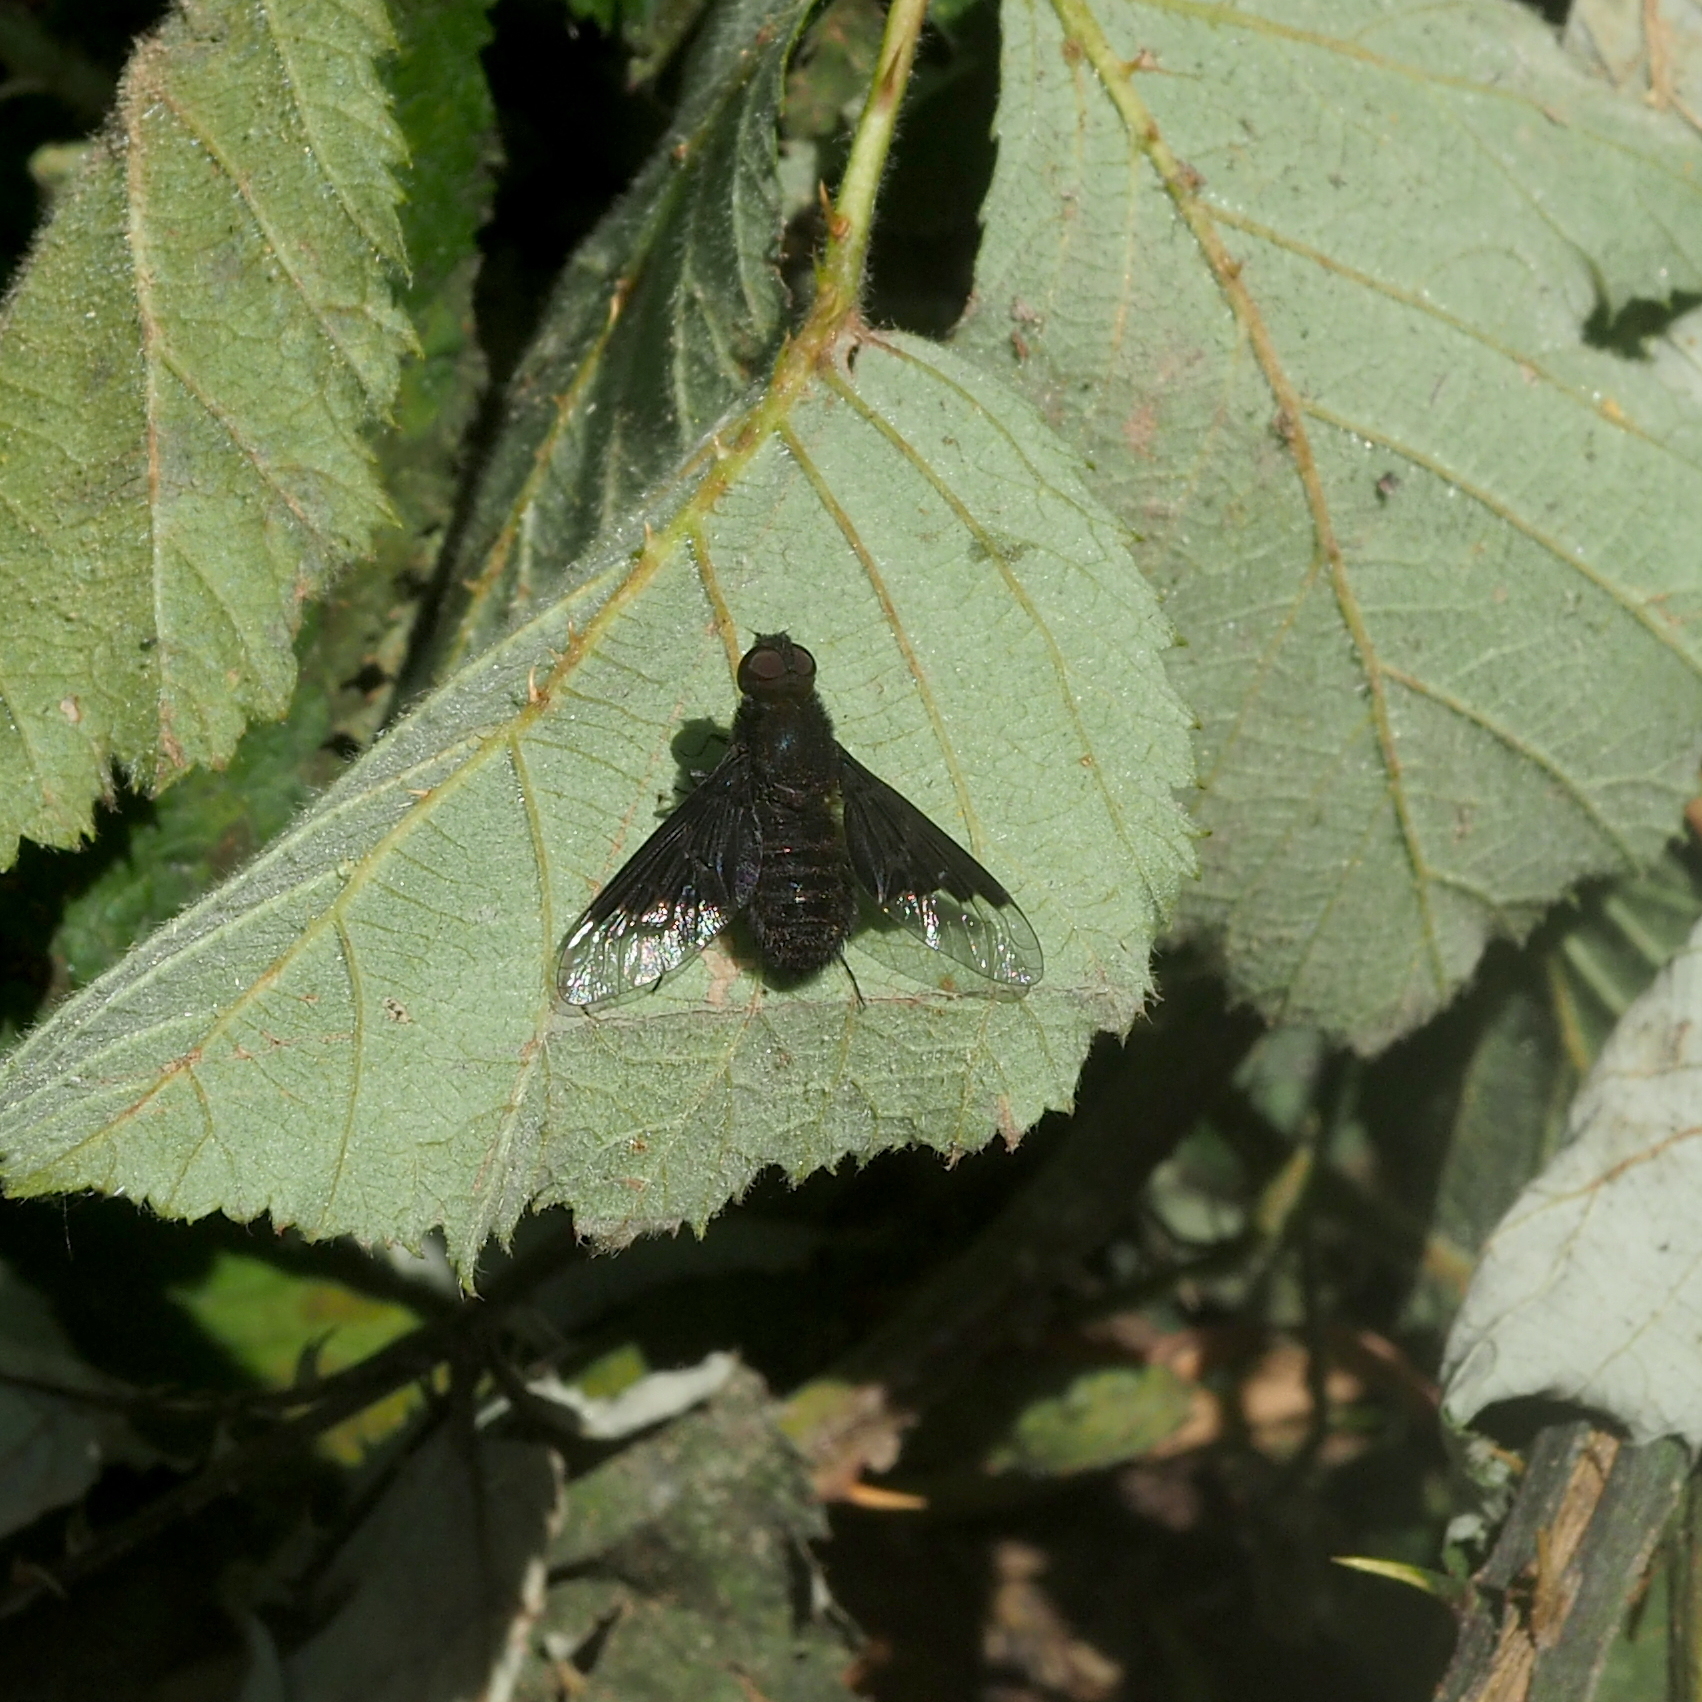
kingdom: Animalia
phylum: Arthropoda
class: Insecta
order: Diptera
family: Bombyliidae
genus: Hemipenthes
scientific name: Hemipenthes morio
